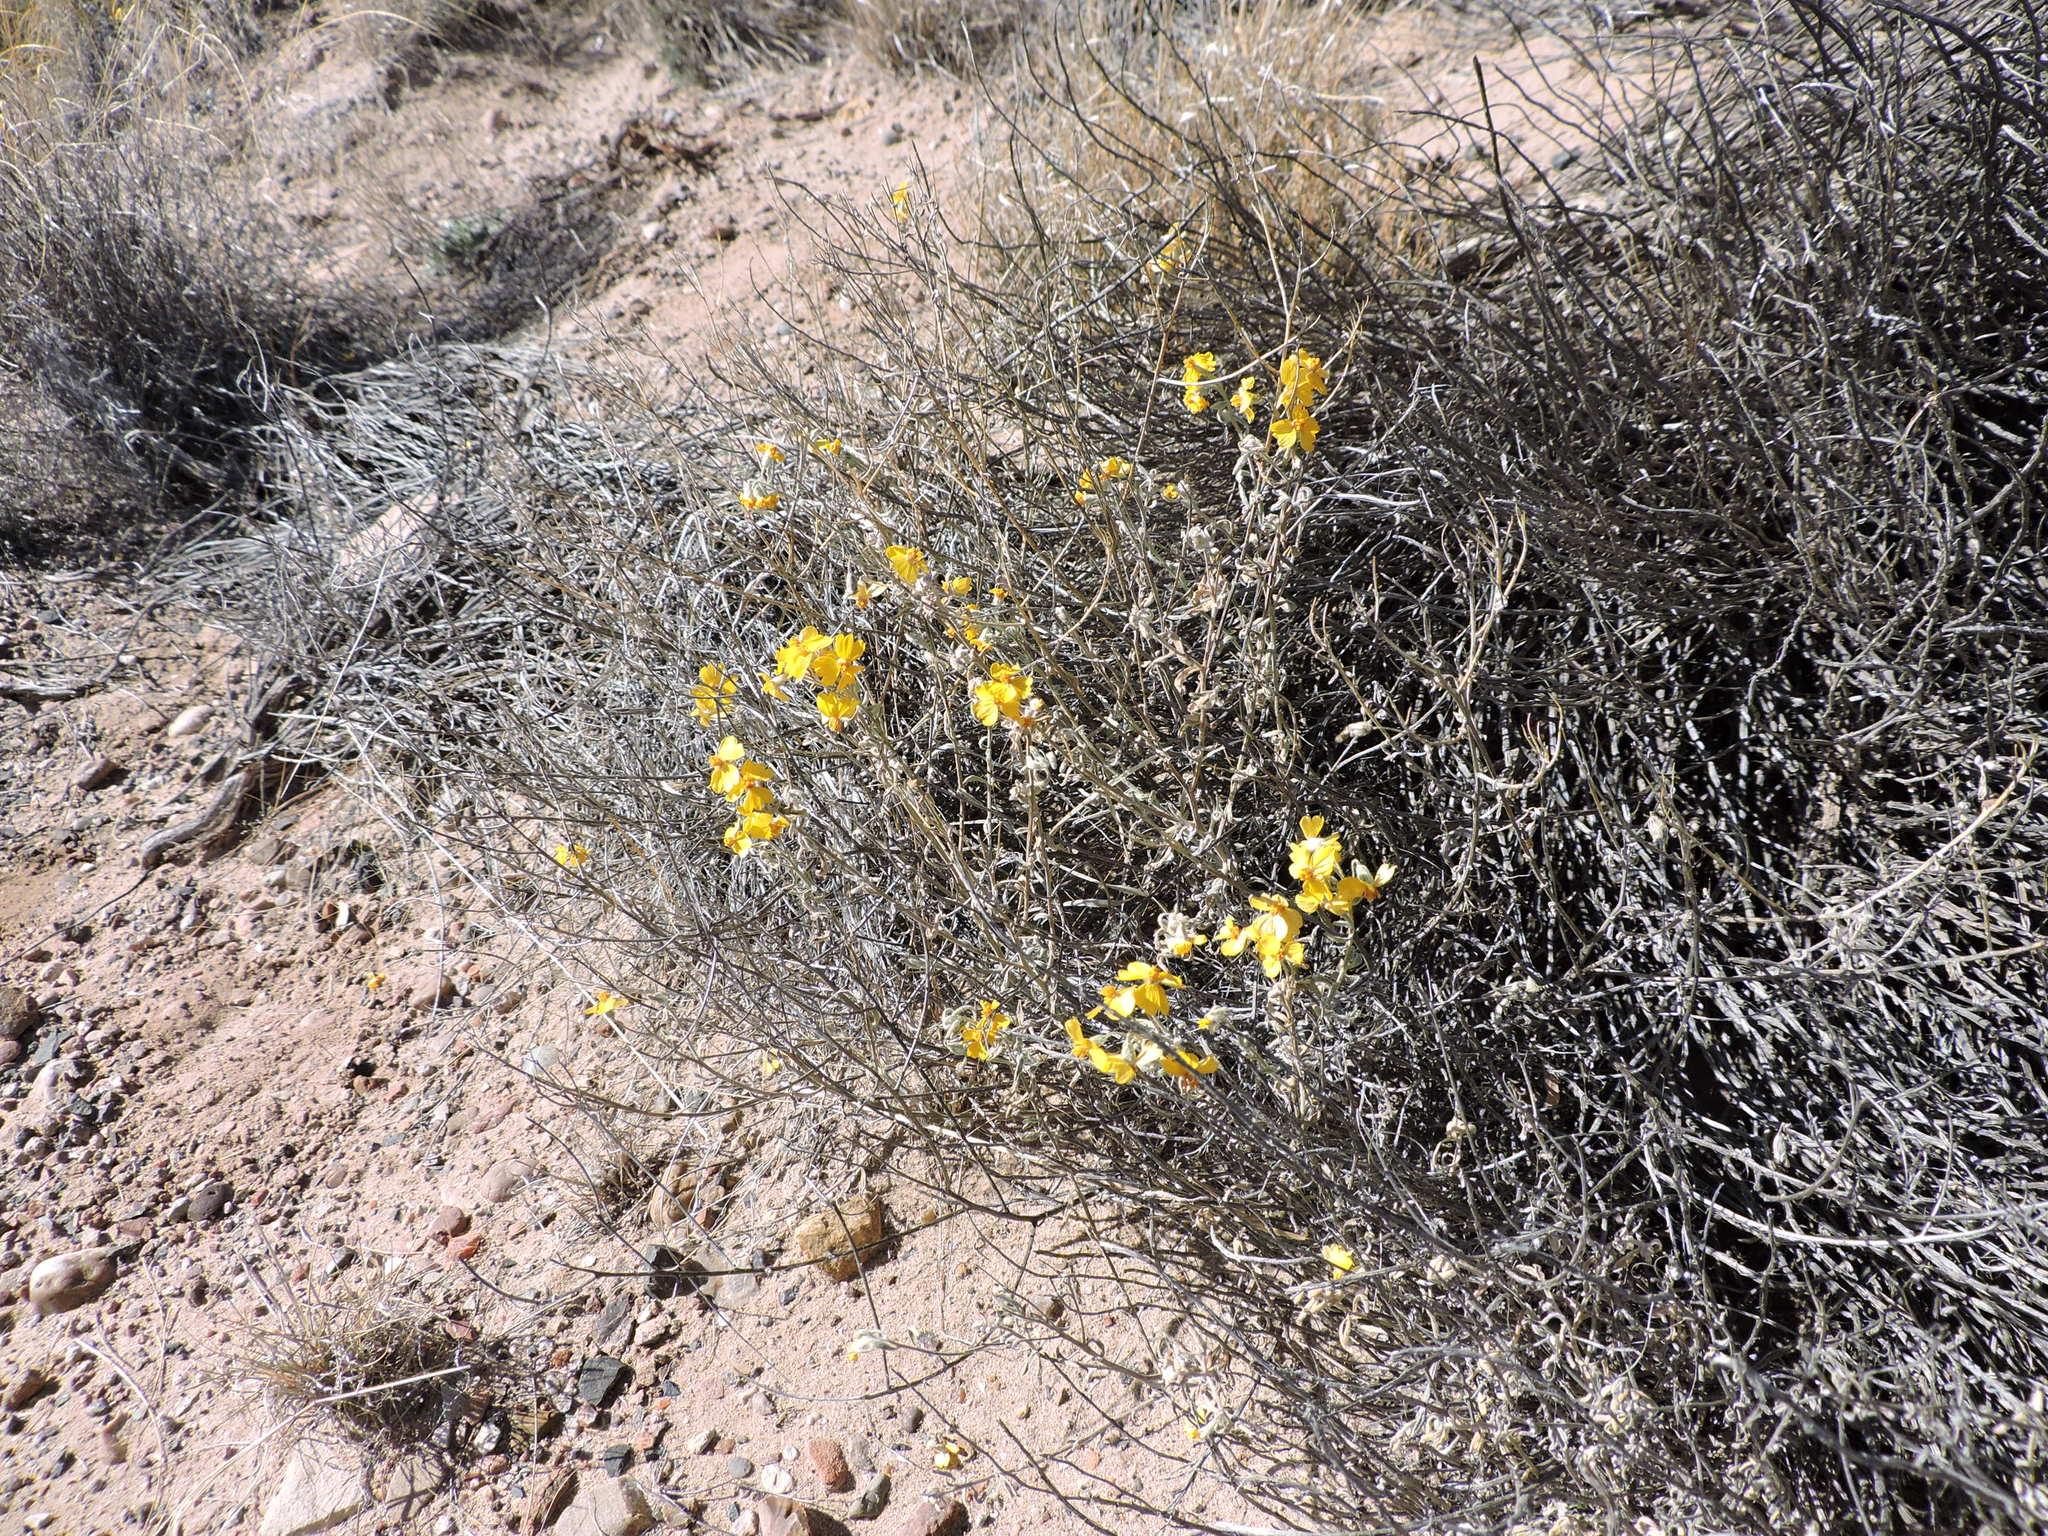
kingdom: Plantae
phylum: Tracheophyta
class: Magnoliopsida
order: Asterales
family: Asteraceae
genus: Psilostrophe
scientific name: Psilostrophe cooperi
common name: White-stem paper-flower
